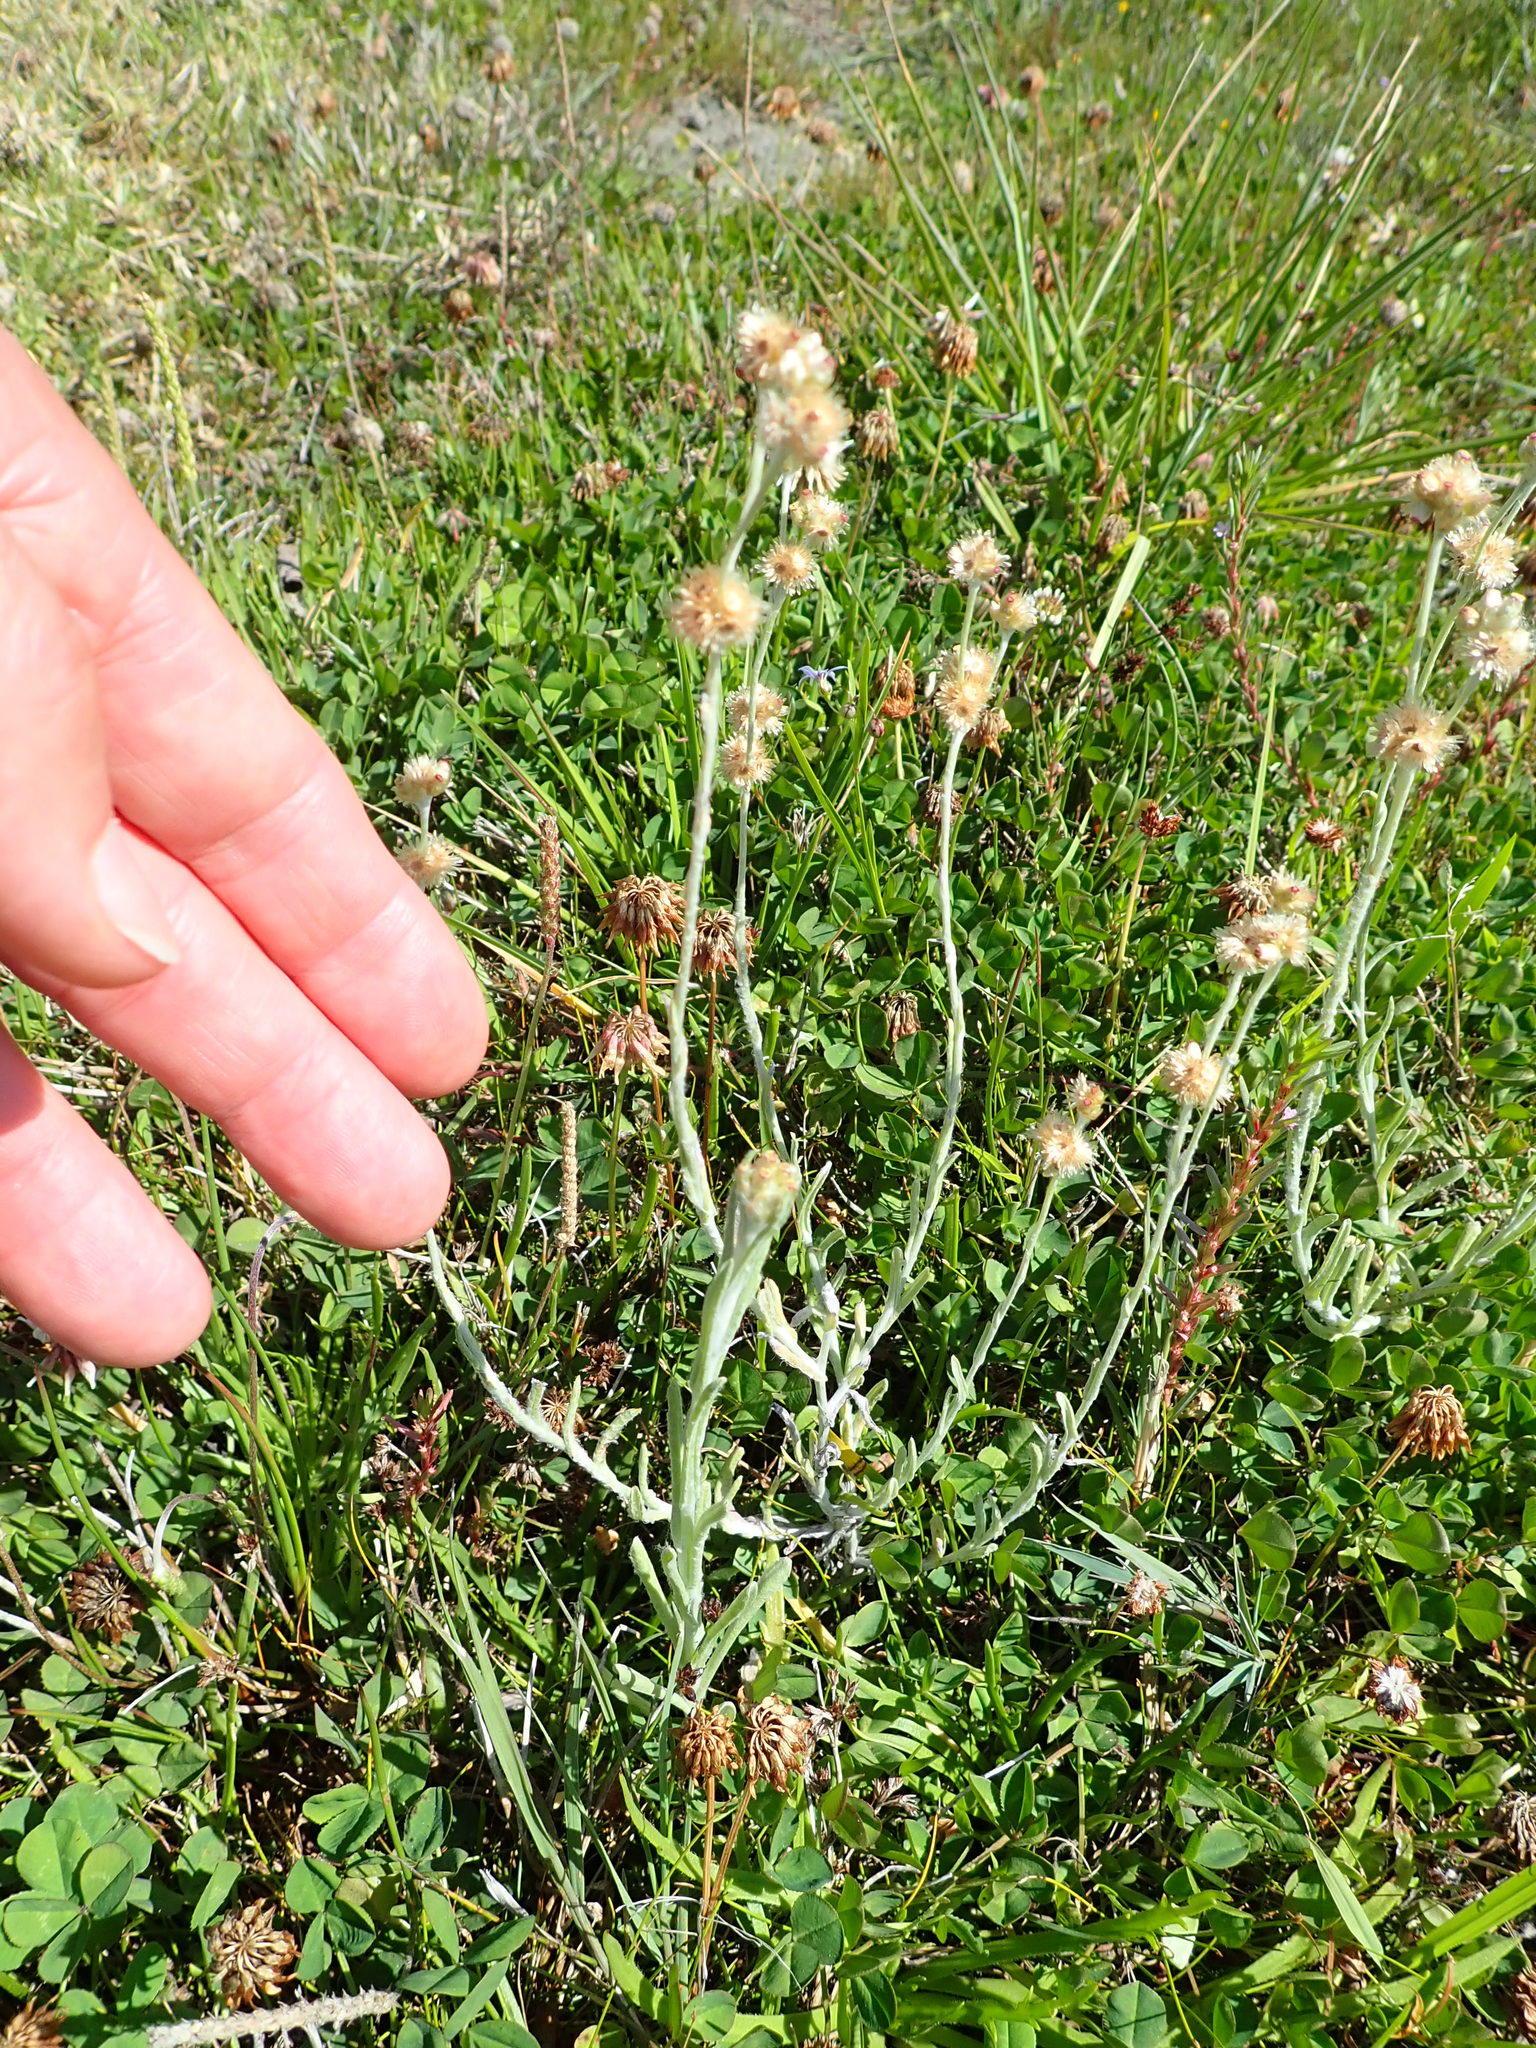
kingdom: Plantae
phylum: Tracheophyta
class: Magnoliopsida
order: Asterales
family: Asteraceae
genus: Helichrysum
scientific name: Helichrysum luteoalbum
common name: Daisy
